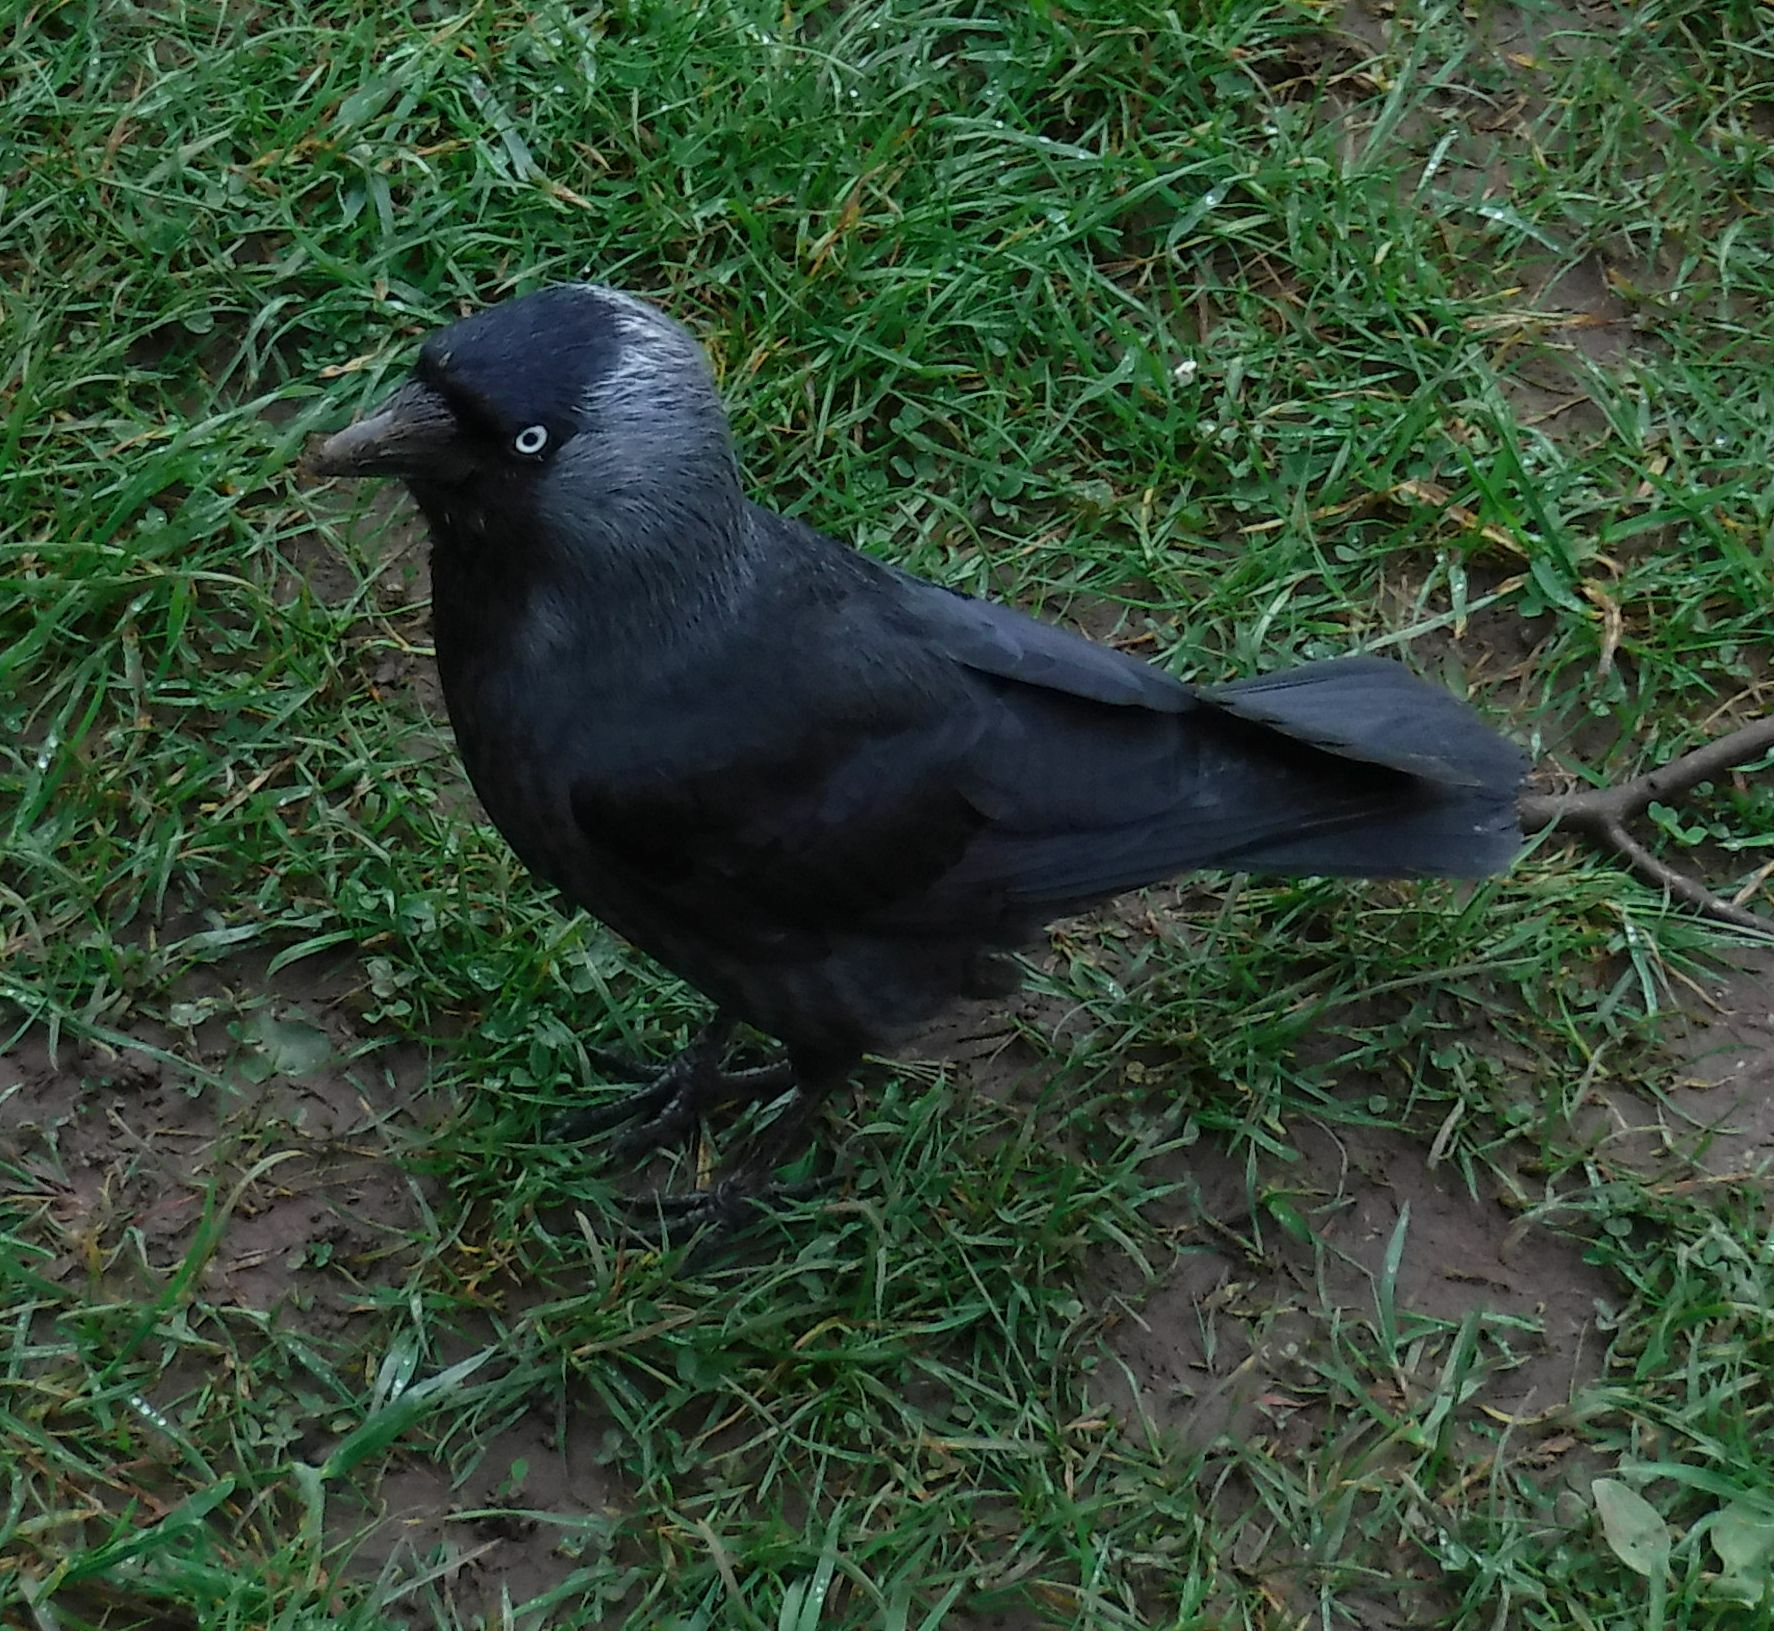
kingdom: Animalia
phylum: Chordata
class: Aves
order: Passeriformes
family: Corvidae
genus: Coloeus
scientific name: Coloeus monedula
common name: Western jackdaw
